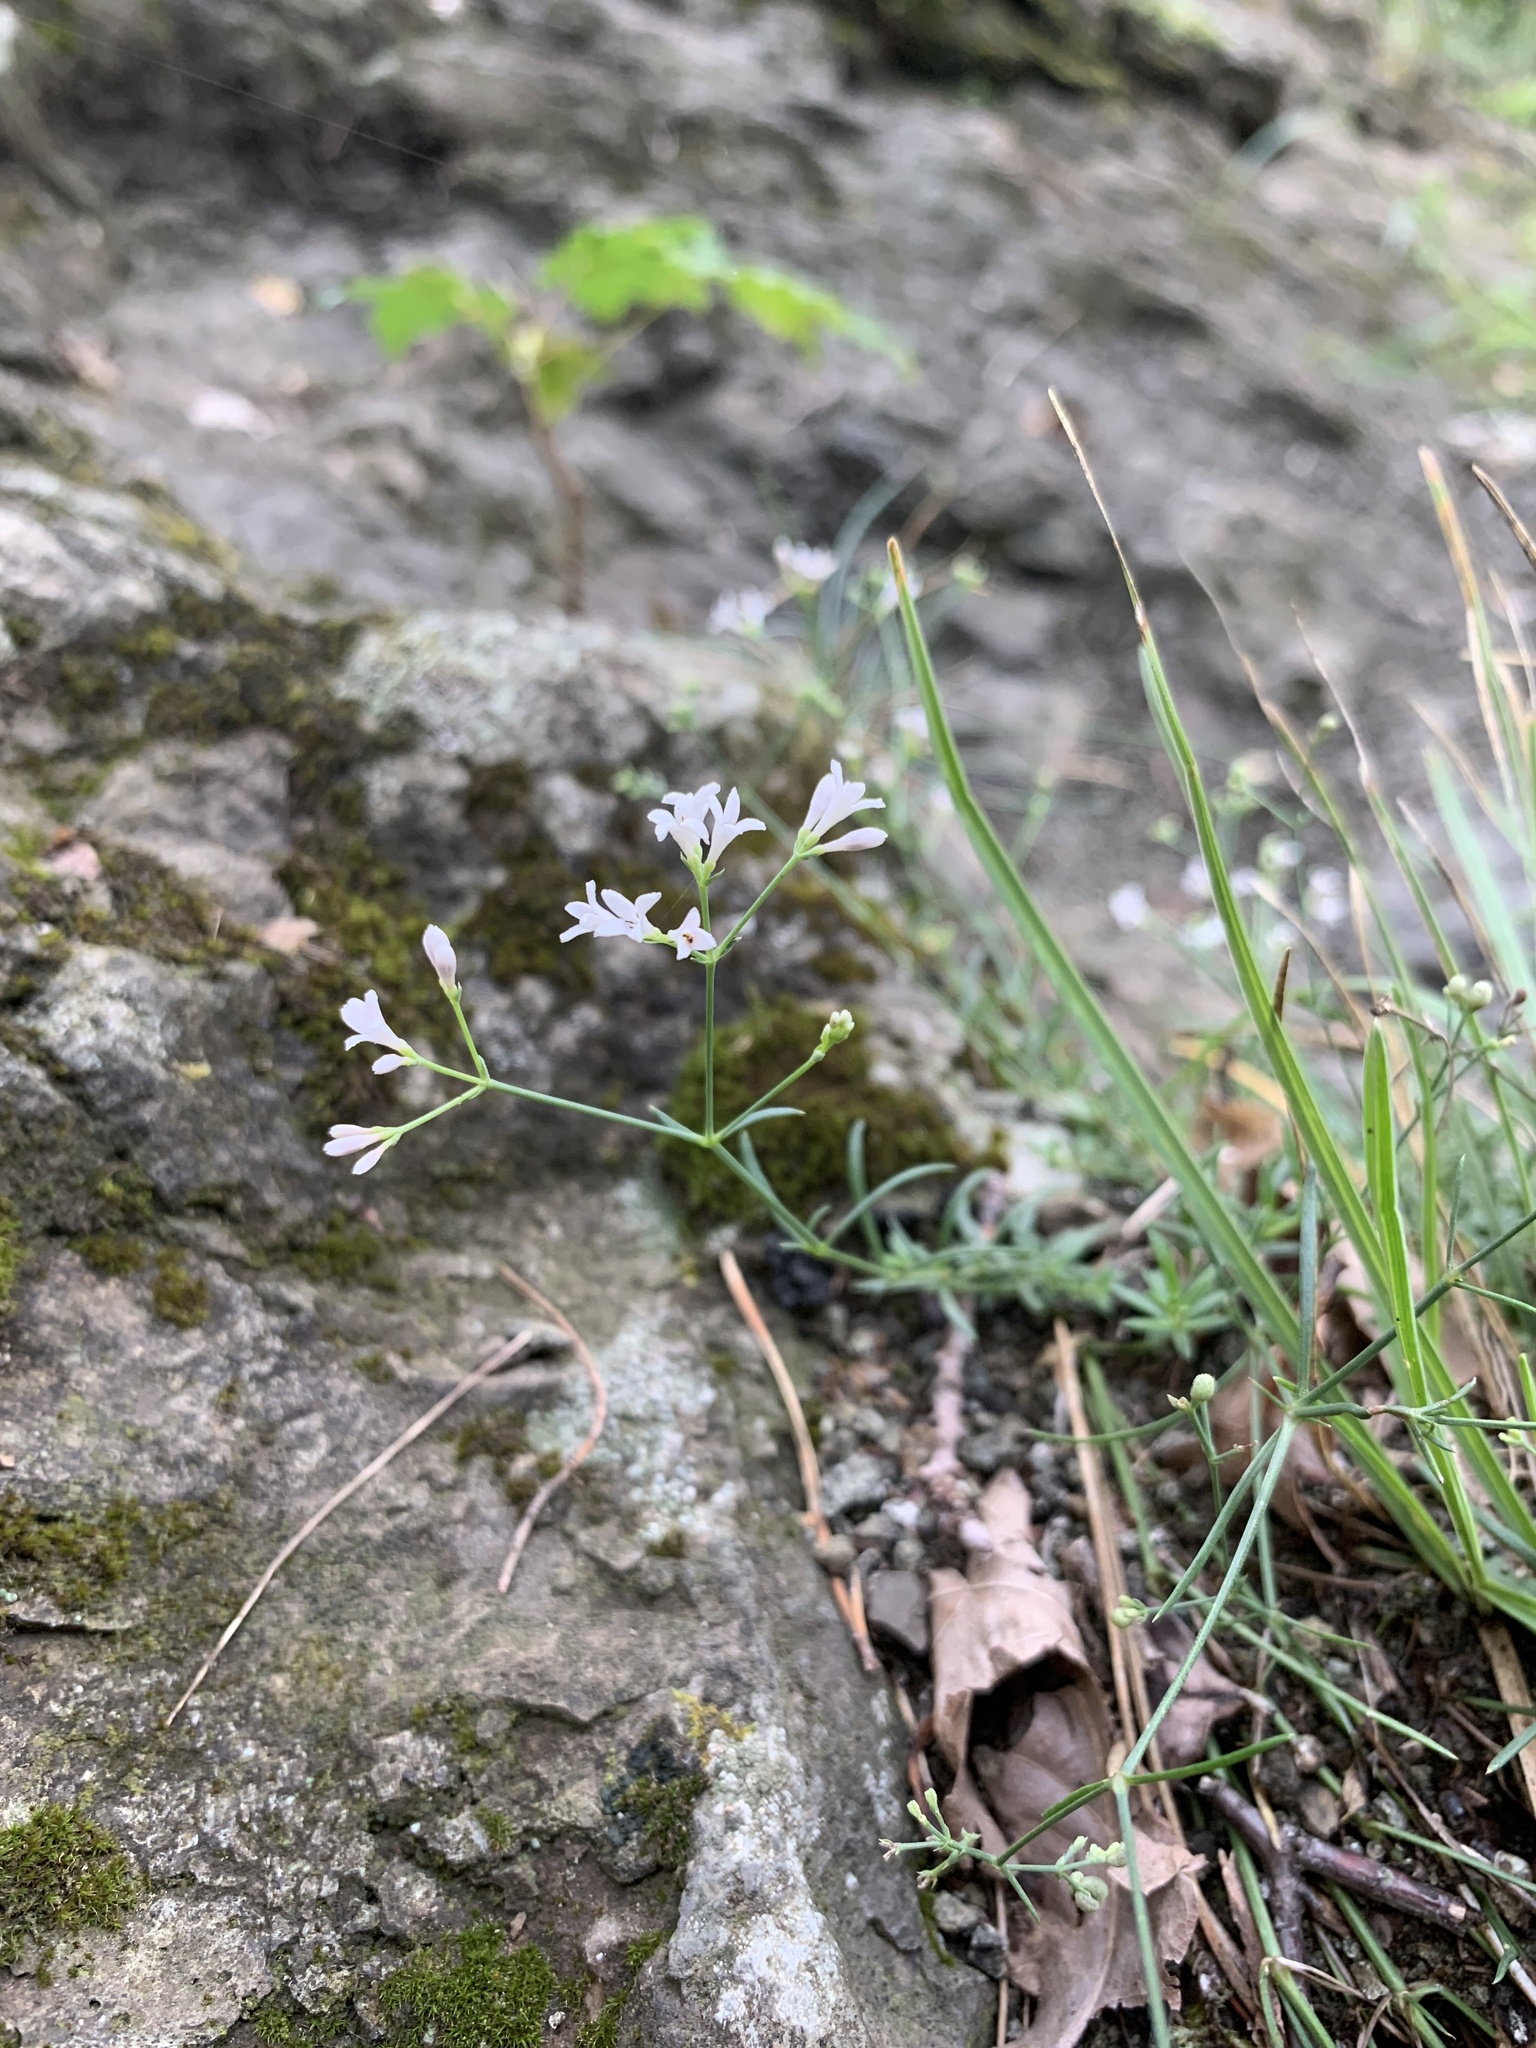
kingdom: Plantae
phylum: Tracheophyta
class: Magnoliopsida
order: Gentianales
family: Rubiaceae
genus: Cynanchica
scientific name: Cynanchica pyrenaica
